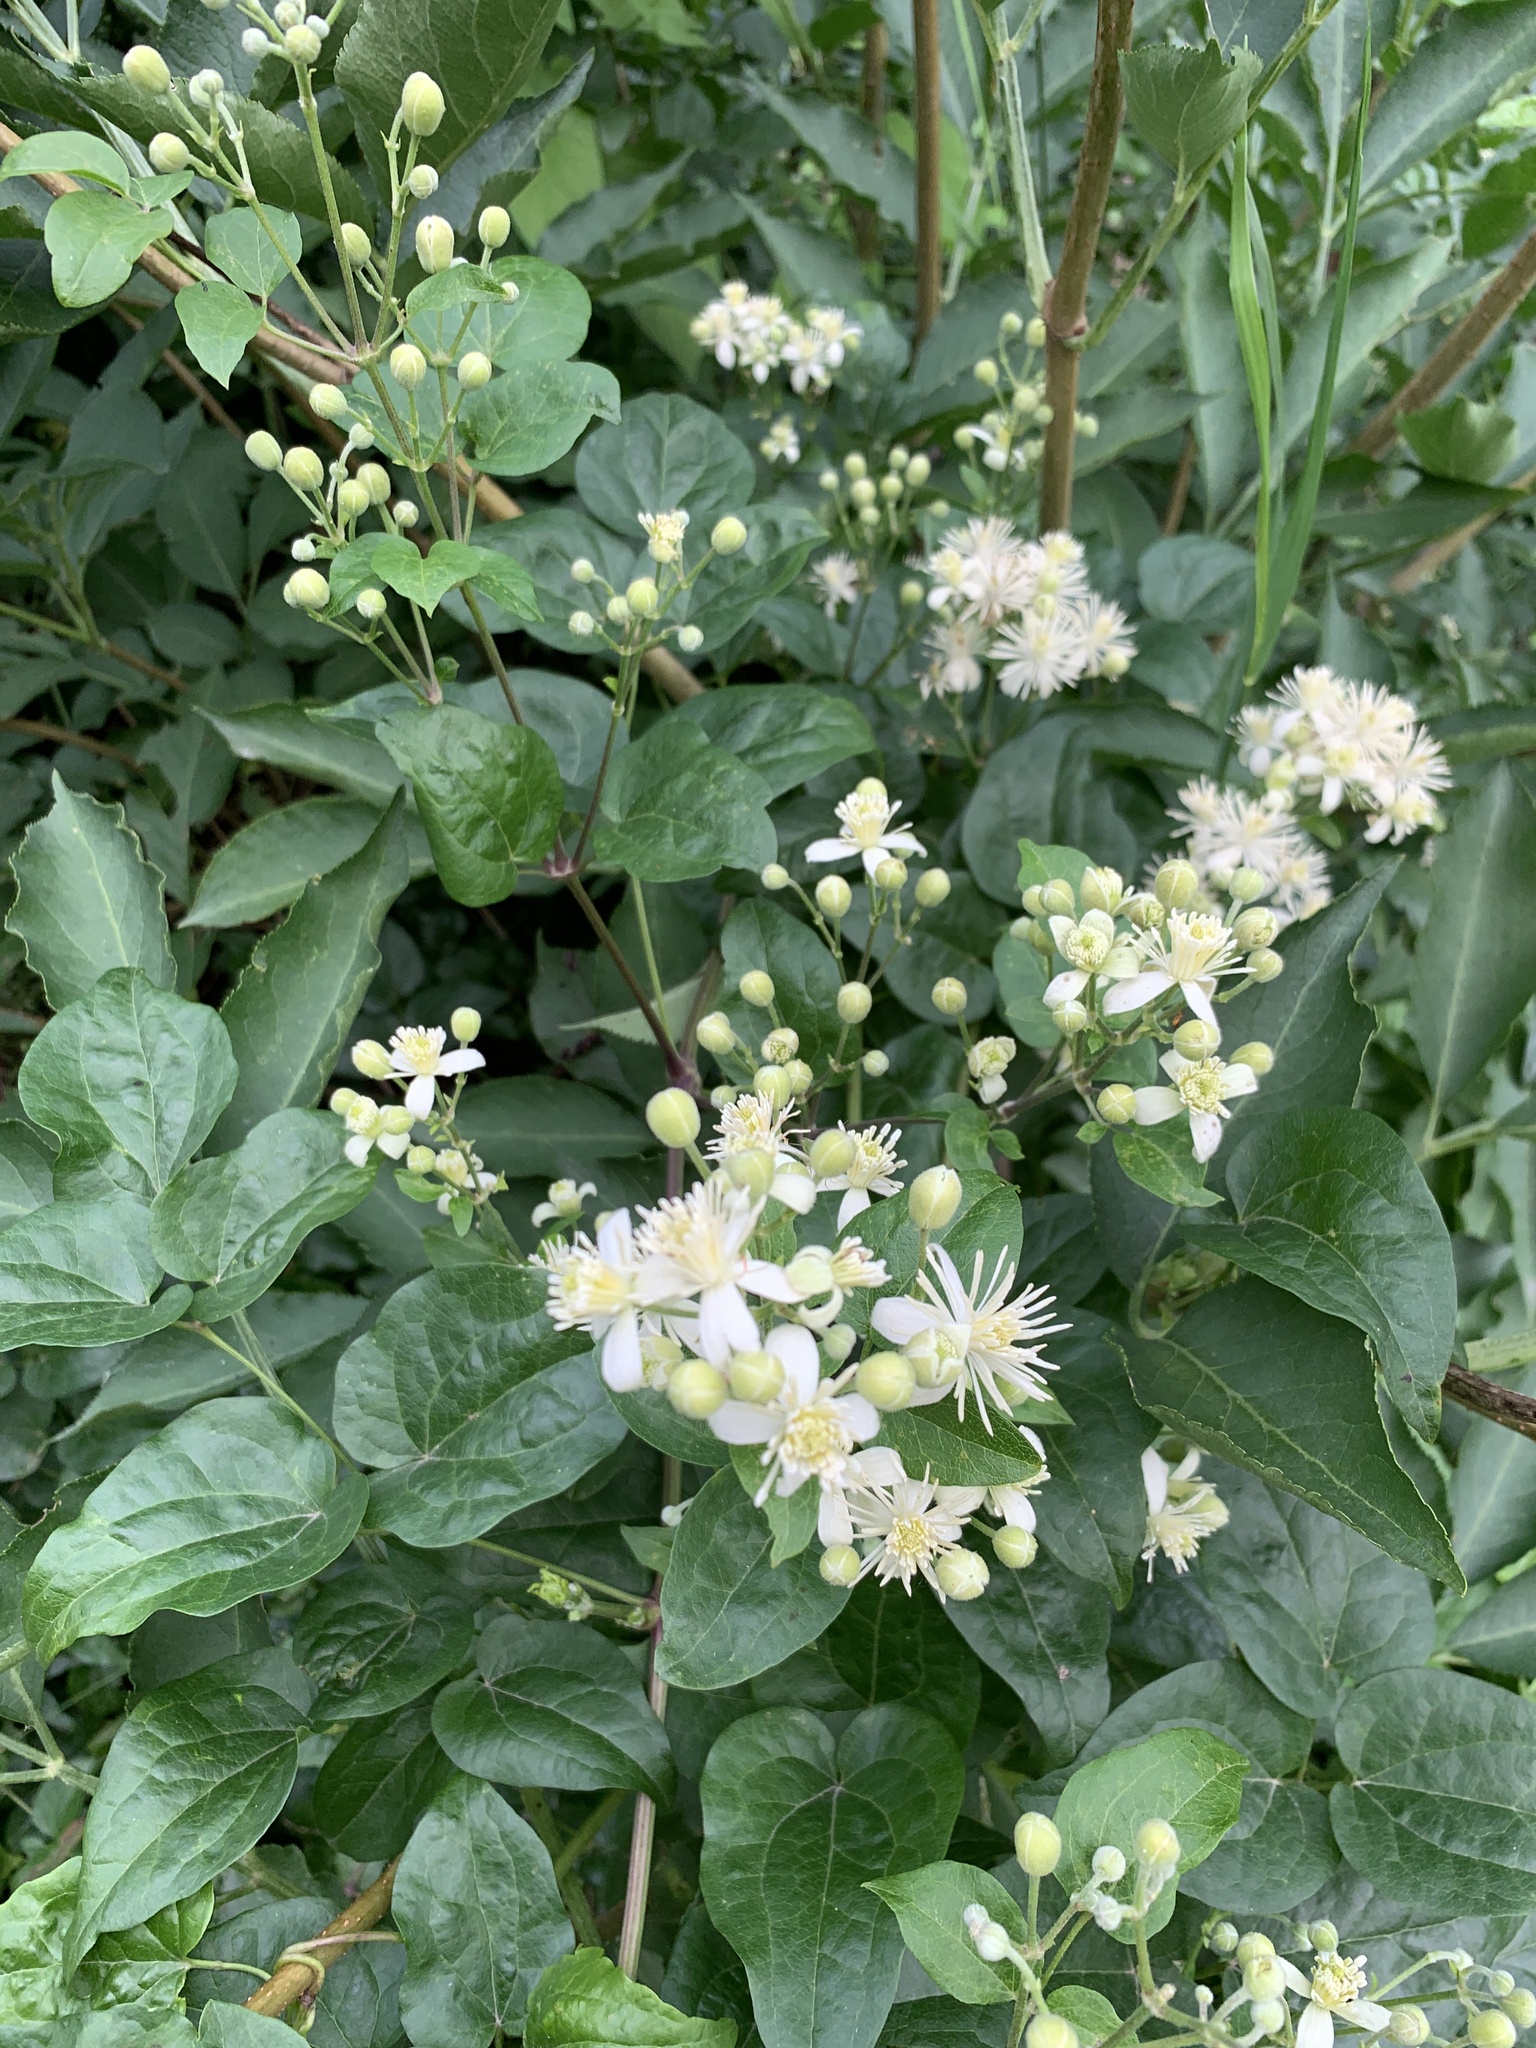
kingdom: Plantae
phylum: Tracheophyta
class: Magnoliopsida
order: Ranunculales
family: Ranunculaceae
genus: Clematis
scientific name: Clematis vitalba
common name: Evergreen clematis
